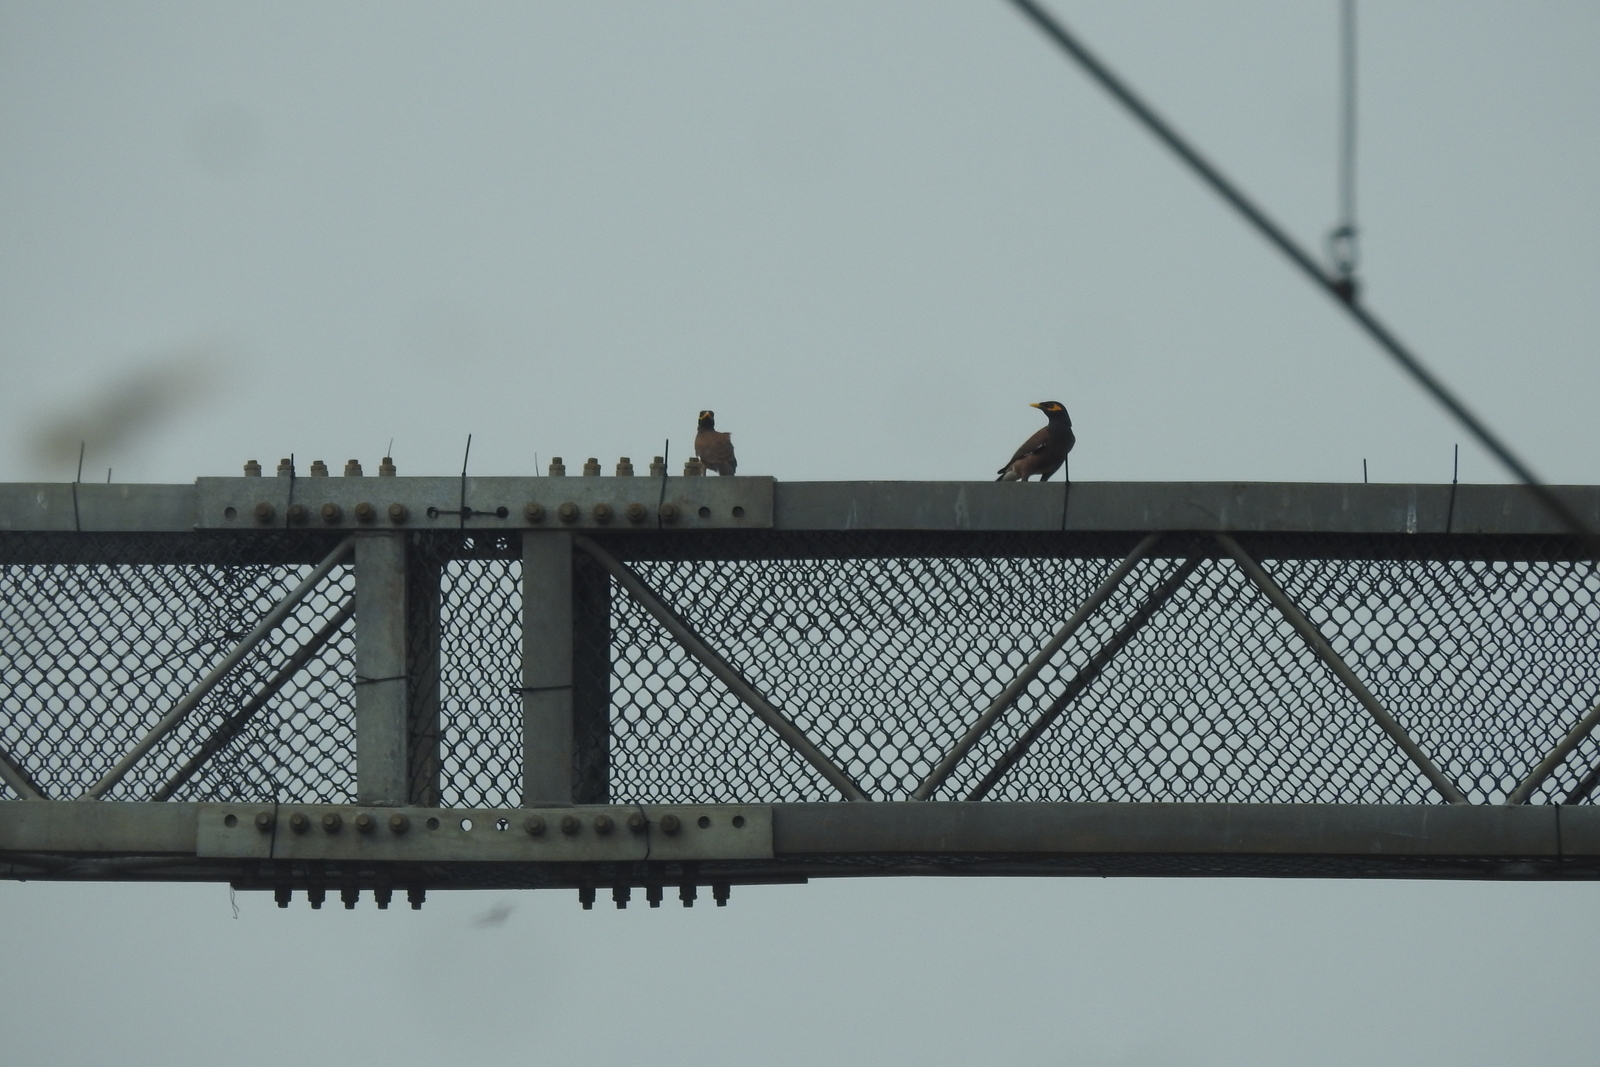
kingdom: Animalia
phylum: Chordata
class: Aves
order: Passeriformes
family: Sturnidae
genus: Acridotheres
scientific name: Acridotheres tristis
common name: Common myna
